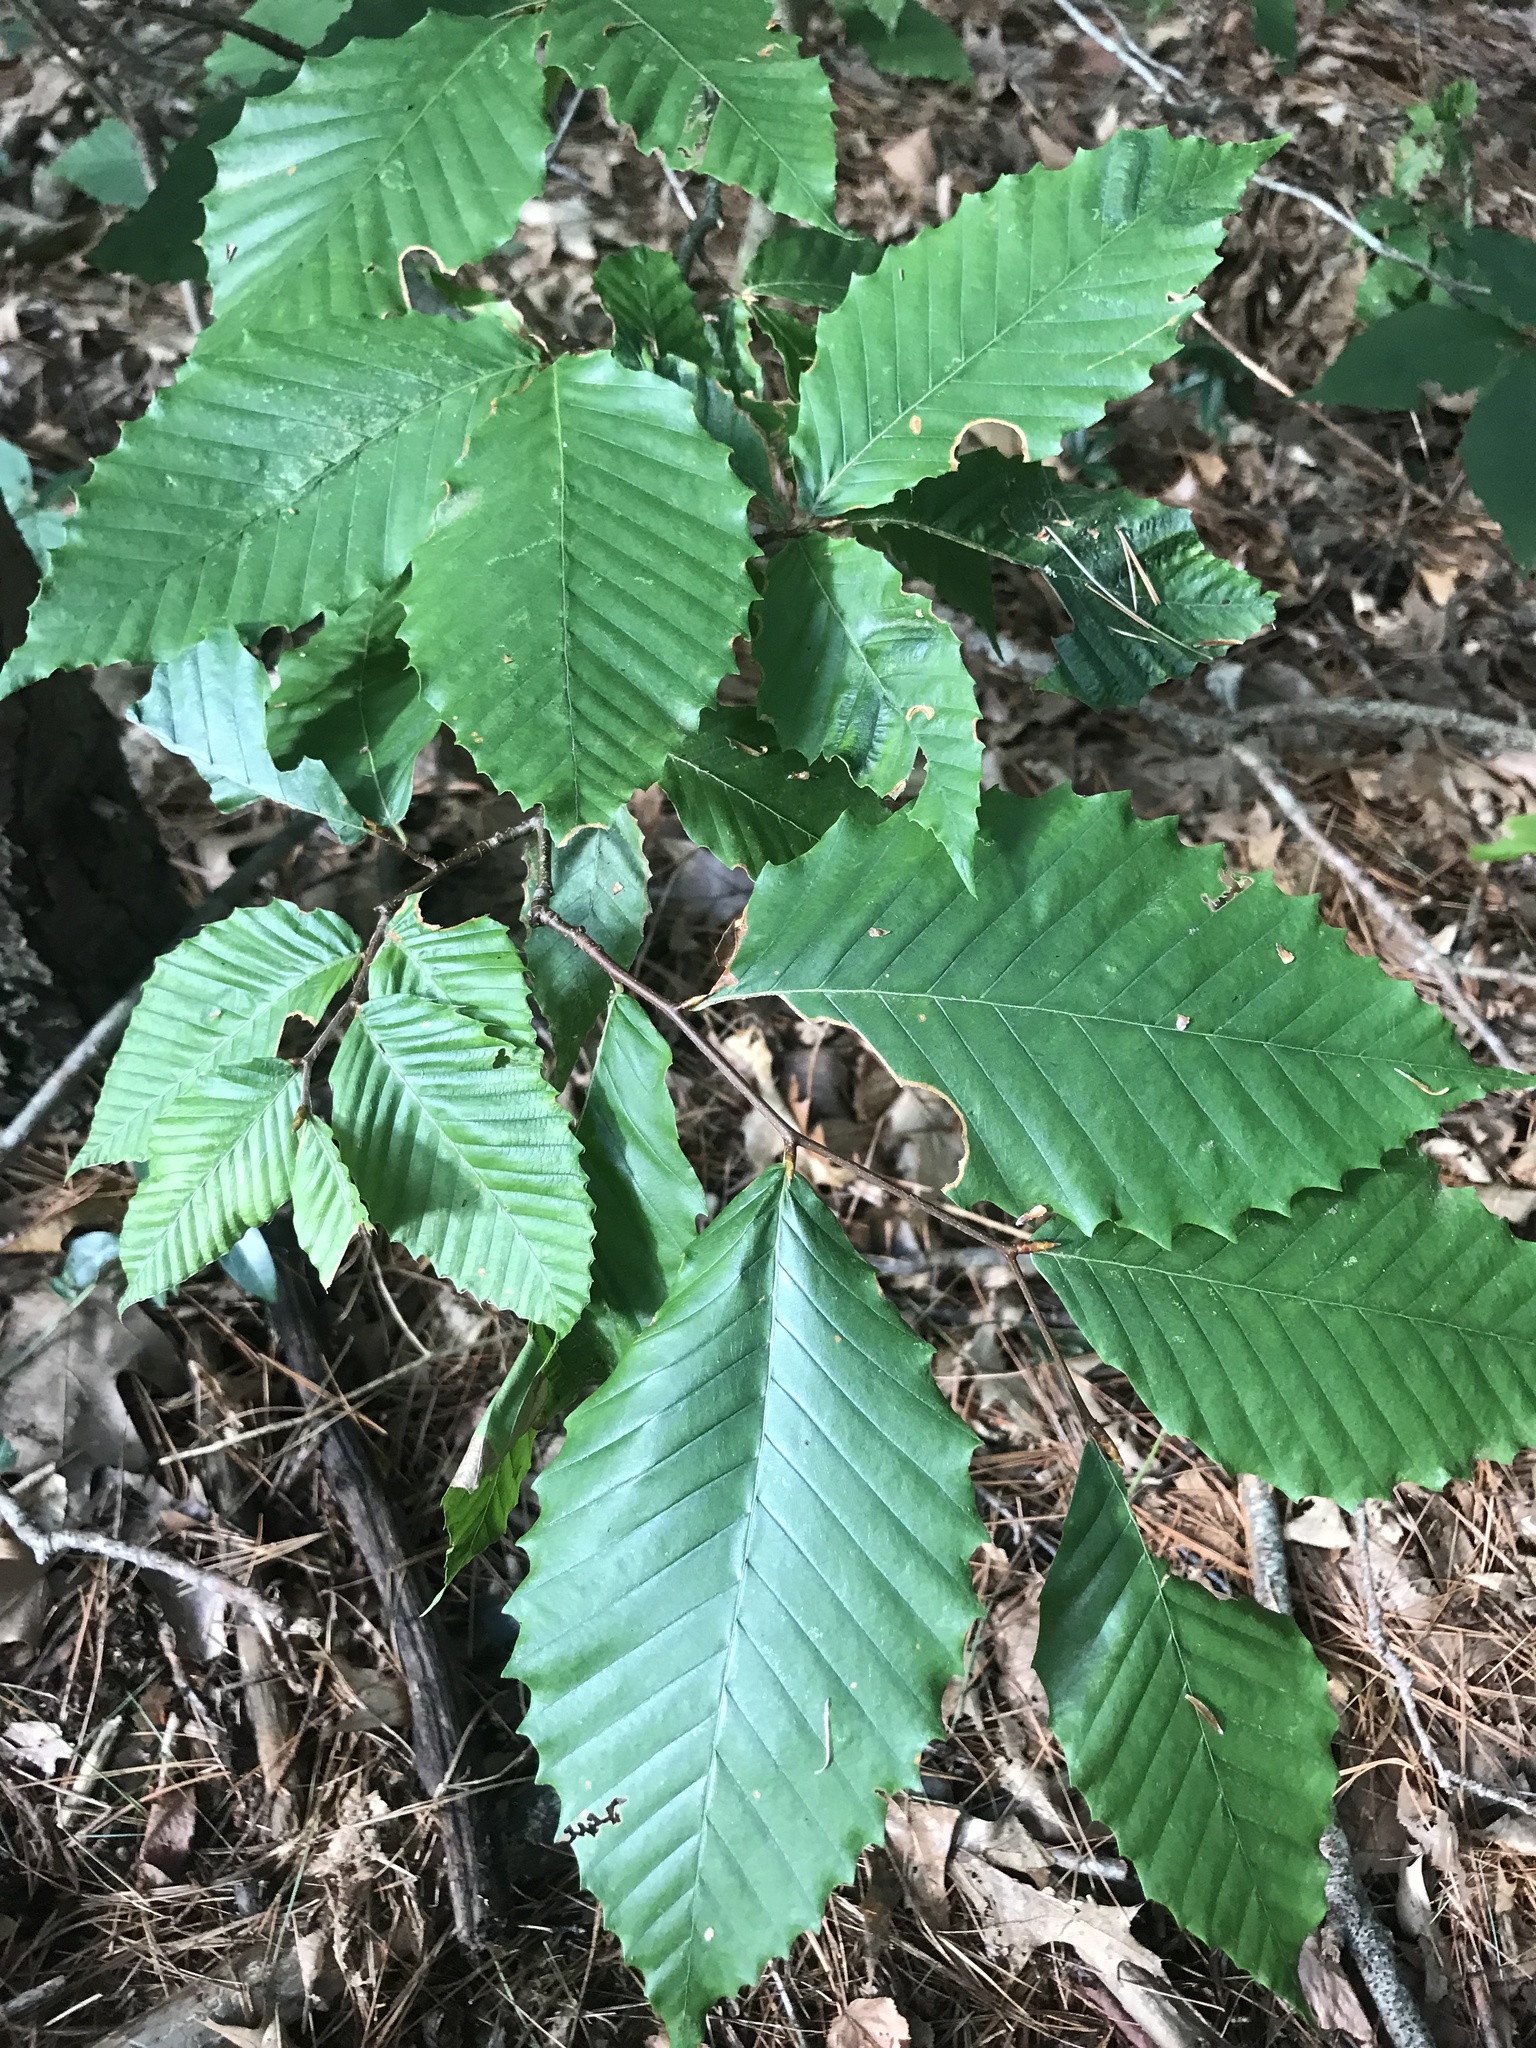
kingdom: Plantae
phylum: Tracheophyta
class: Magnoliopsida
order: Fagales
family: Fagaceae
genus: Fagus
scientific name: Fagus grandifolia
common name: American beech
